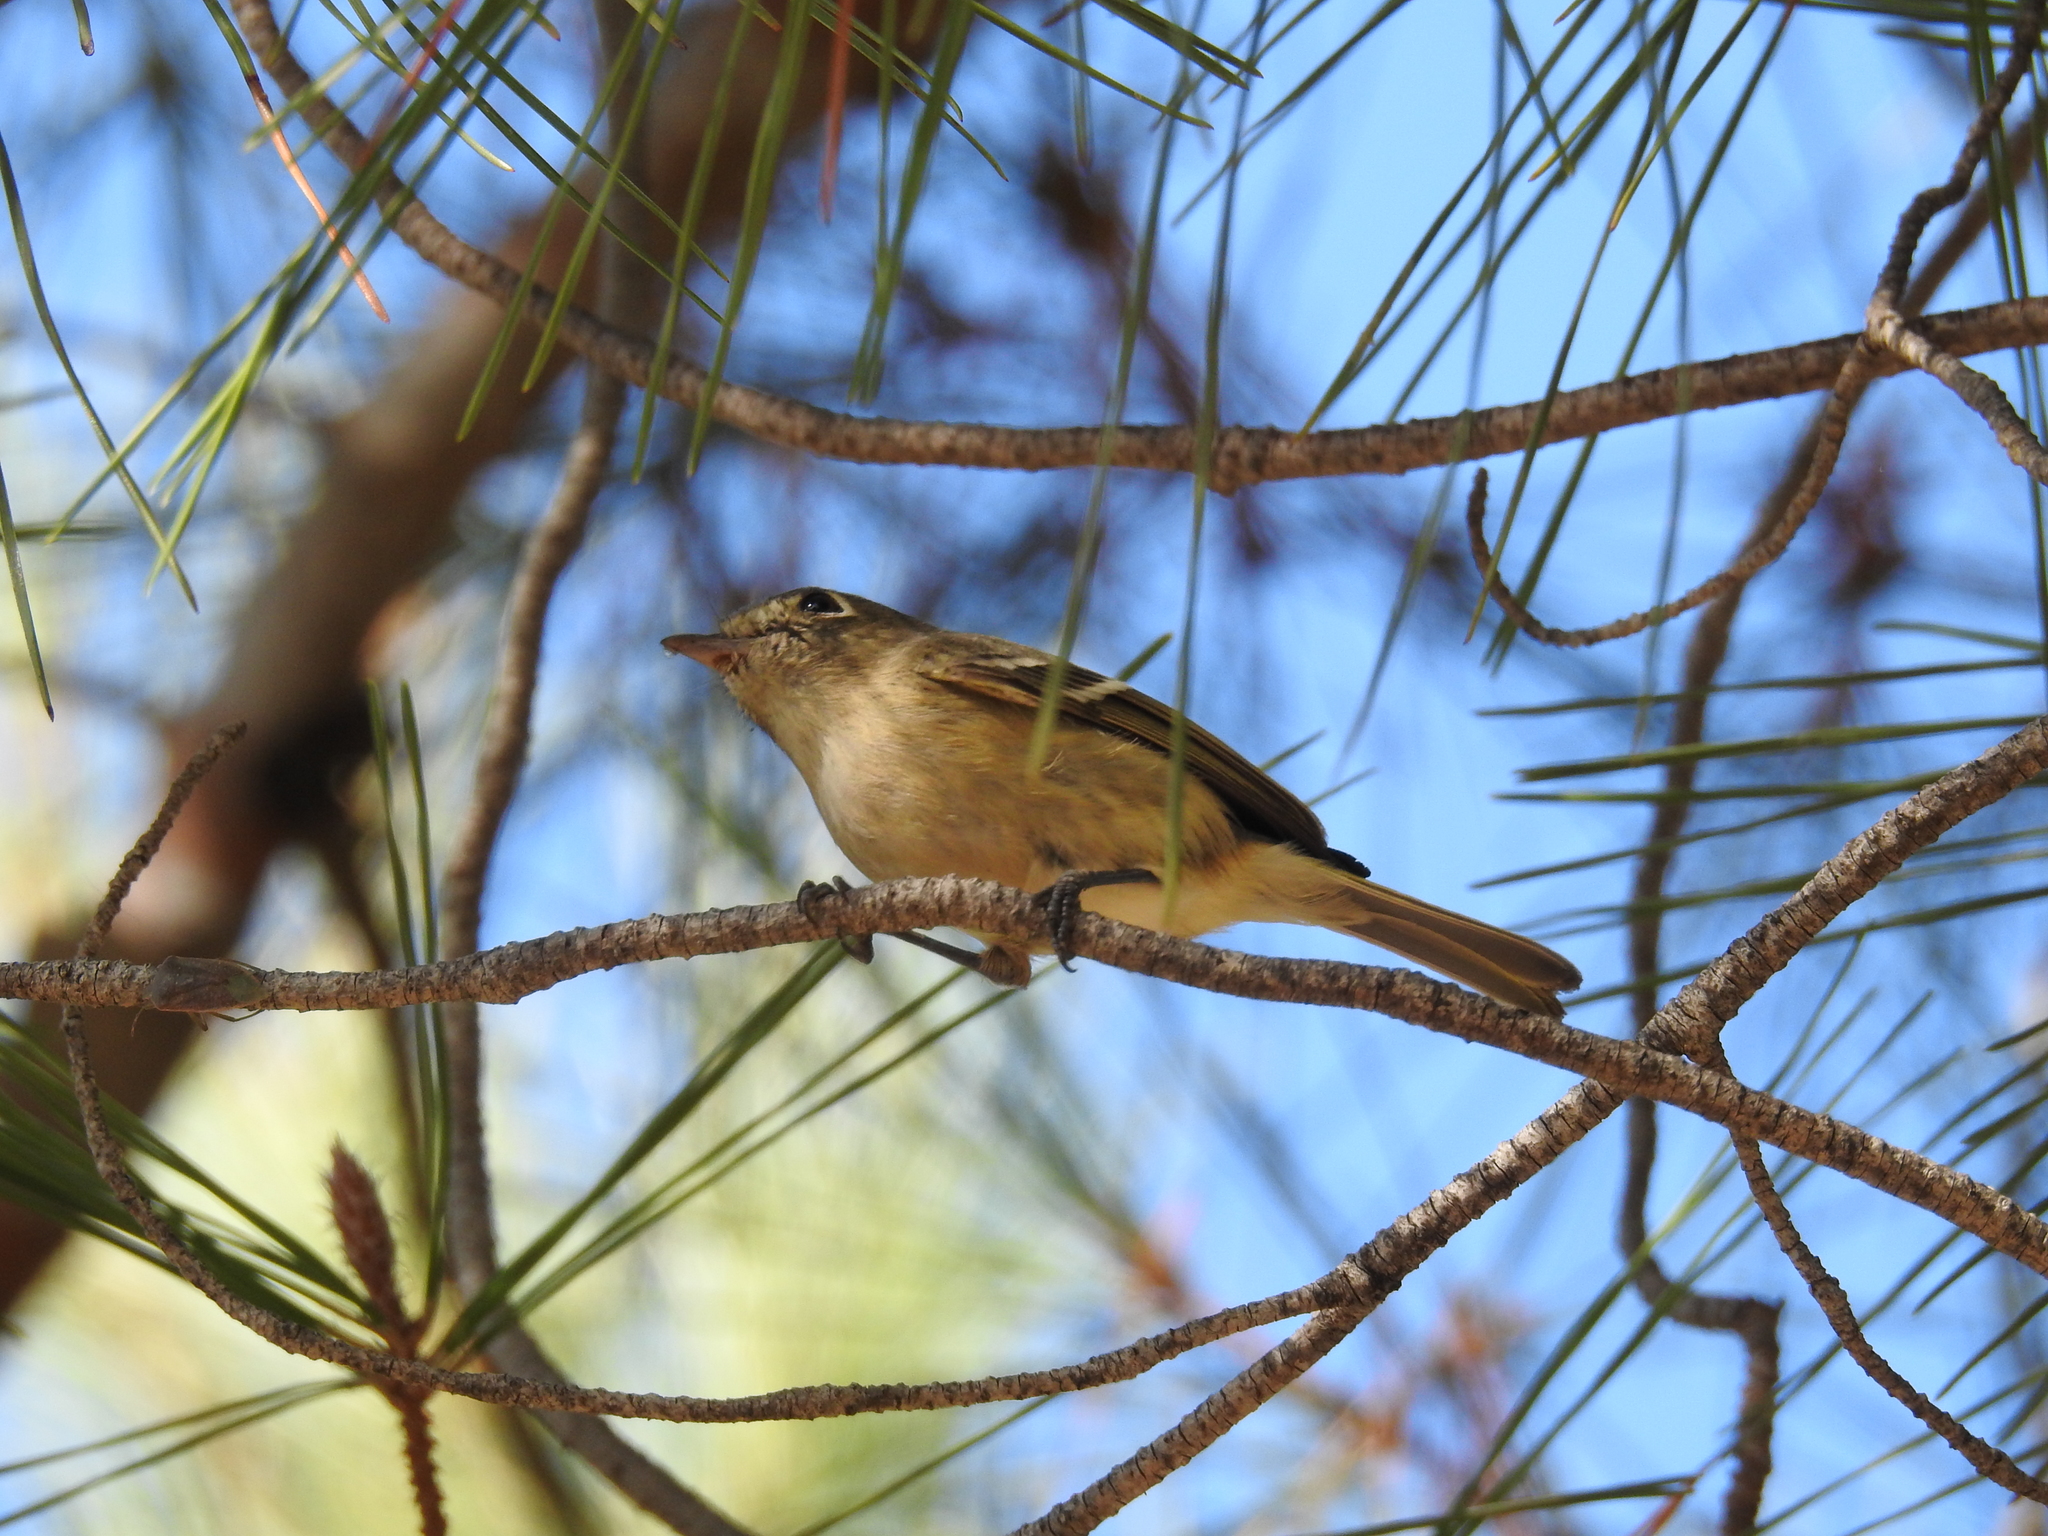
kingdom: Animalia
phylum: Chordata
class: Aves
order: Passeriformes
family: Vireonidae
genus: Vireo
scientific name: Vireo huttoni
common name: Hutton's vireo
